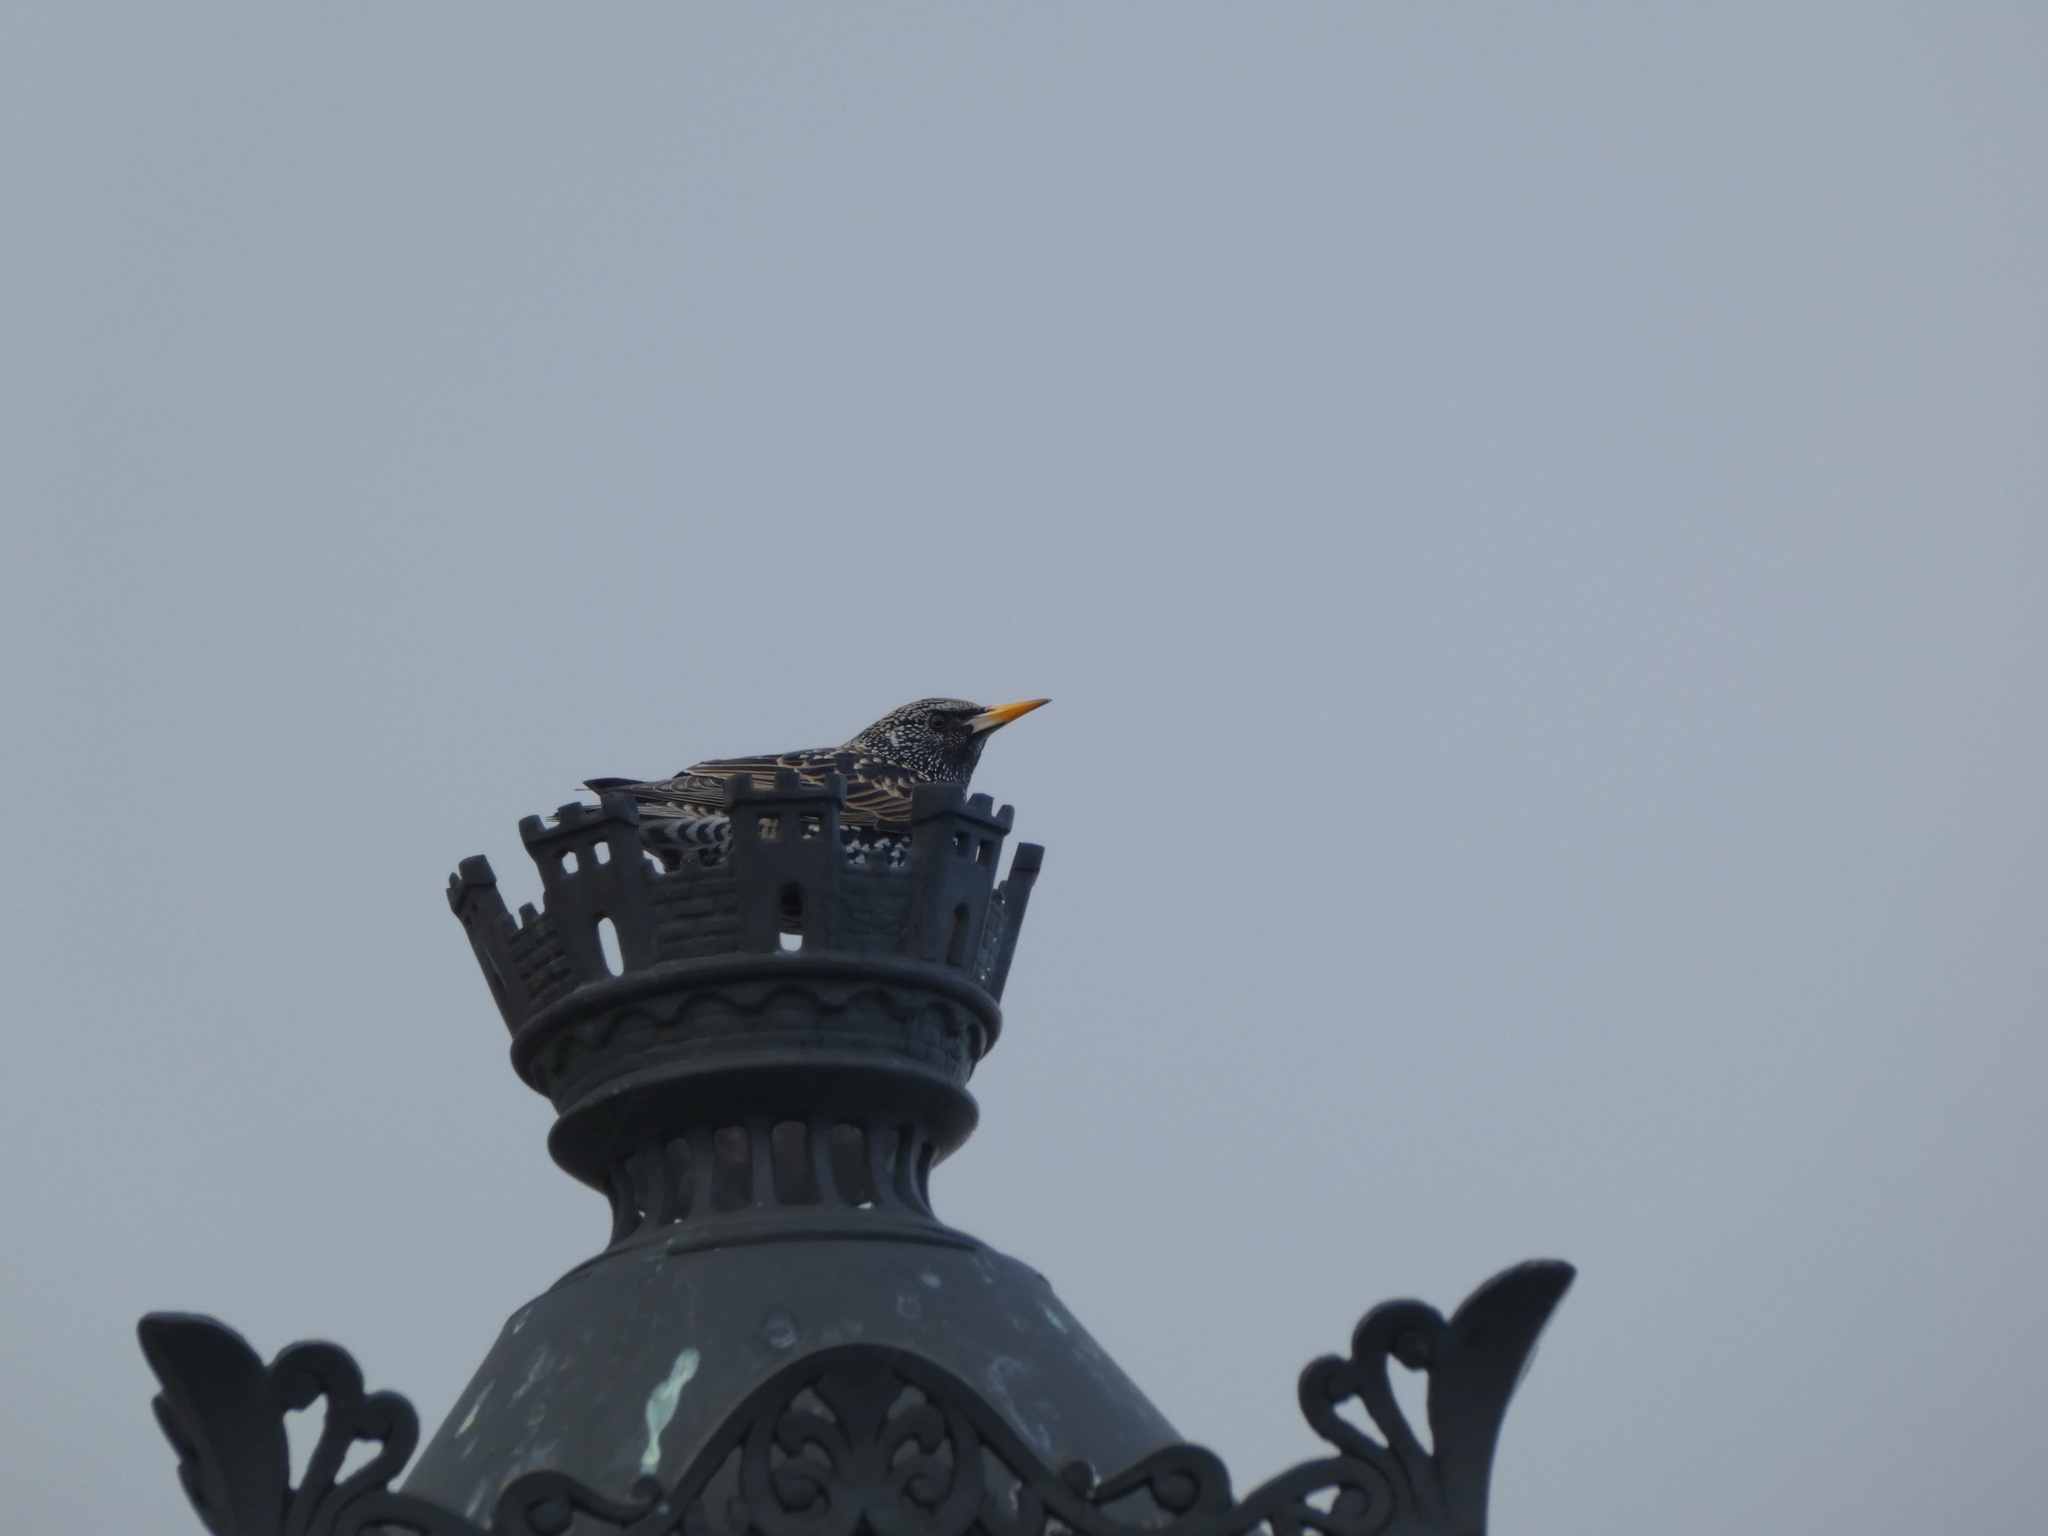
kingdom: Animalia
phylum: Chordata
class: Aves
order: Passeriformes
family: Sturnidae
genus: Sturnus
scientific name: Sturnus vulgaris
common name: Common starling
